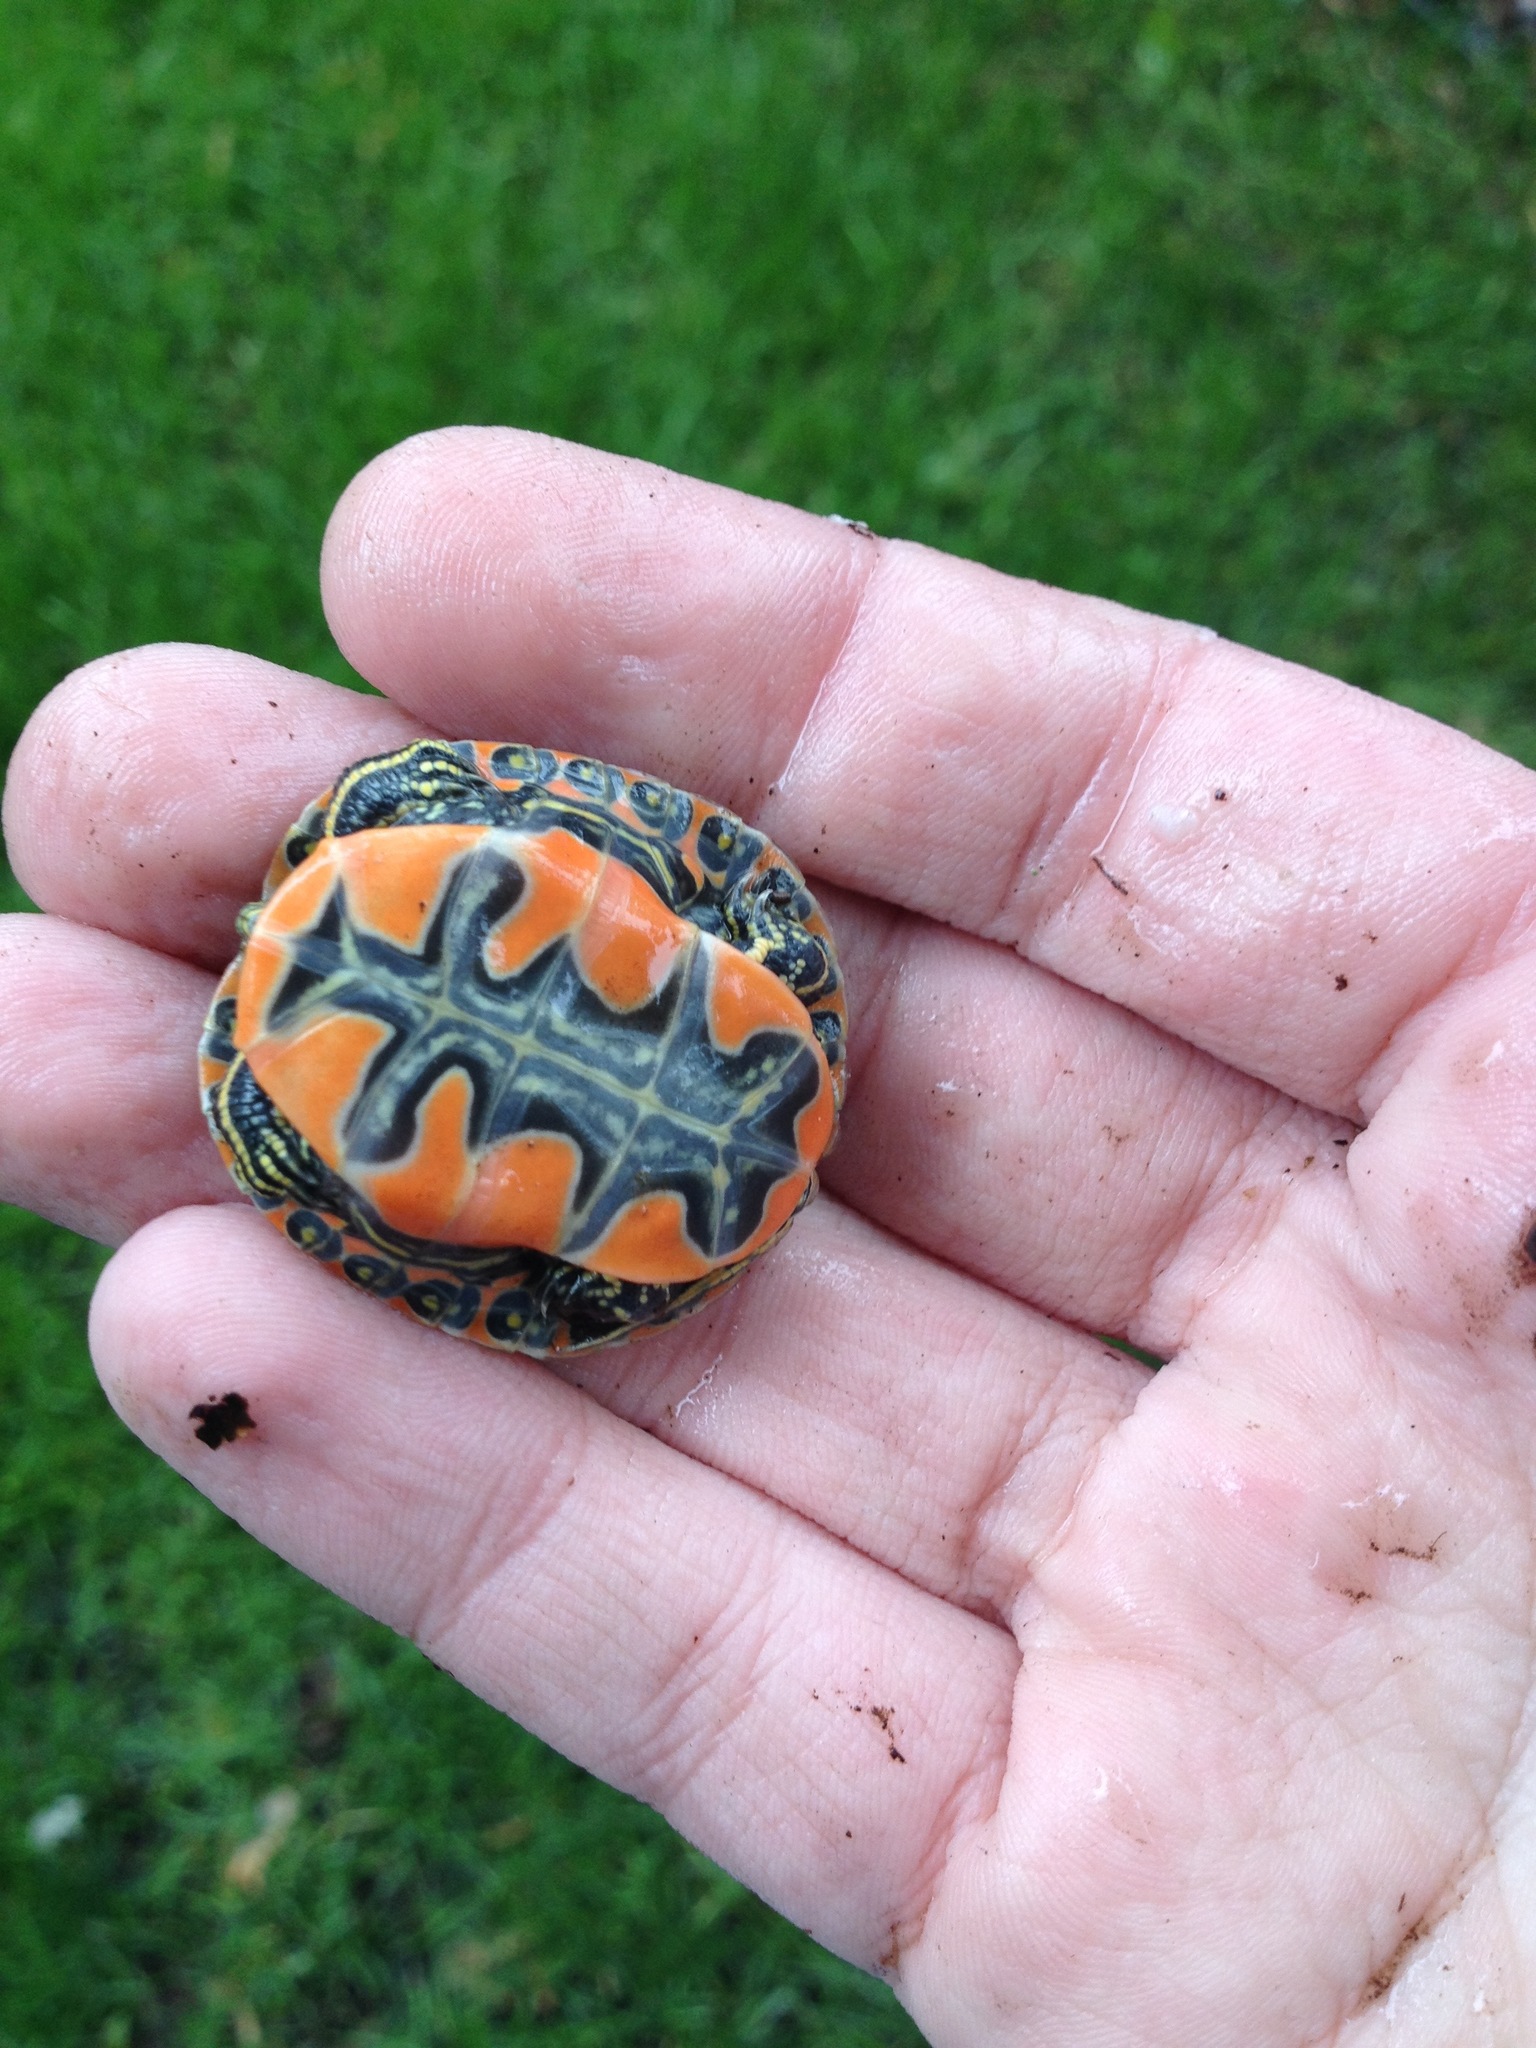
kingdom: Animalia
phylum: Chordata
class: Testudines
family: Emydidae
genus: Chrysemys
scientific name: Chrysemys picta
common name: Painted turtle
